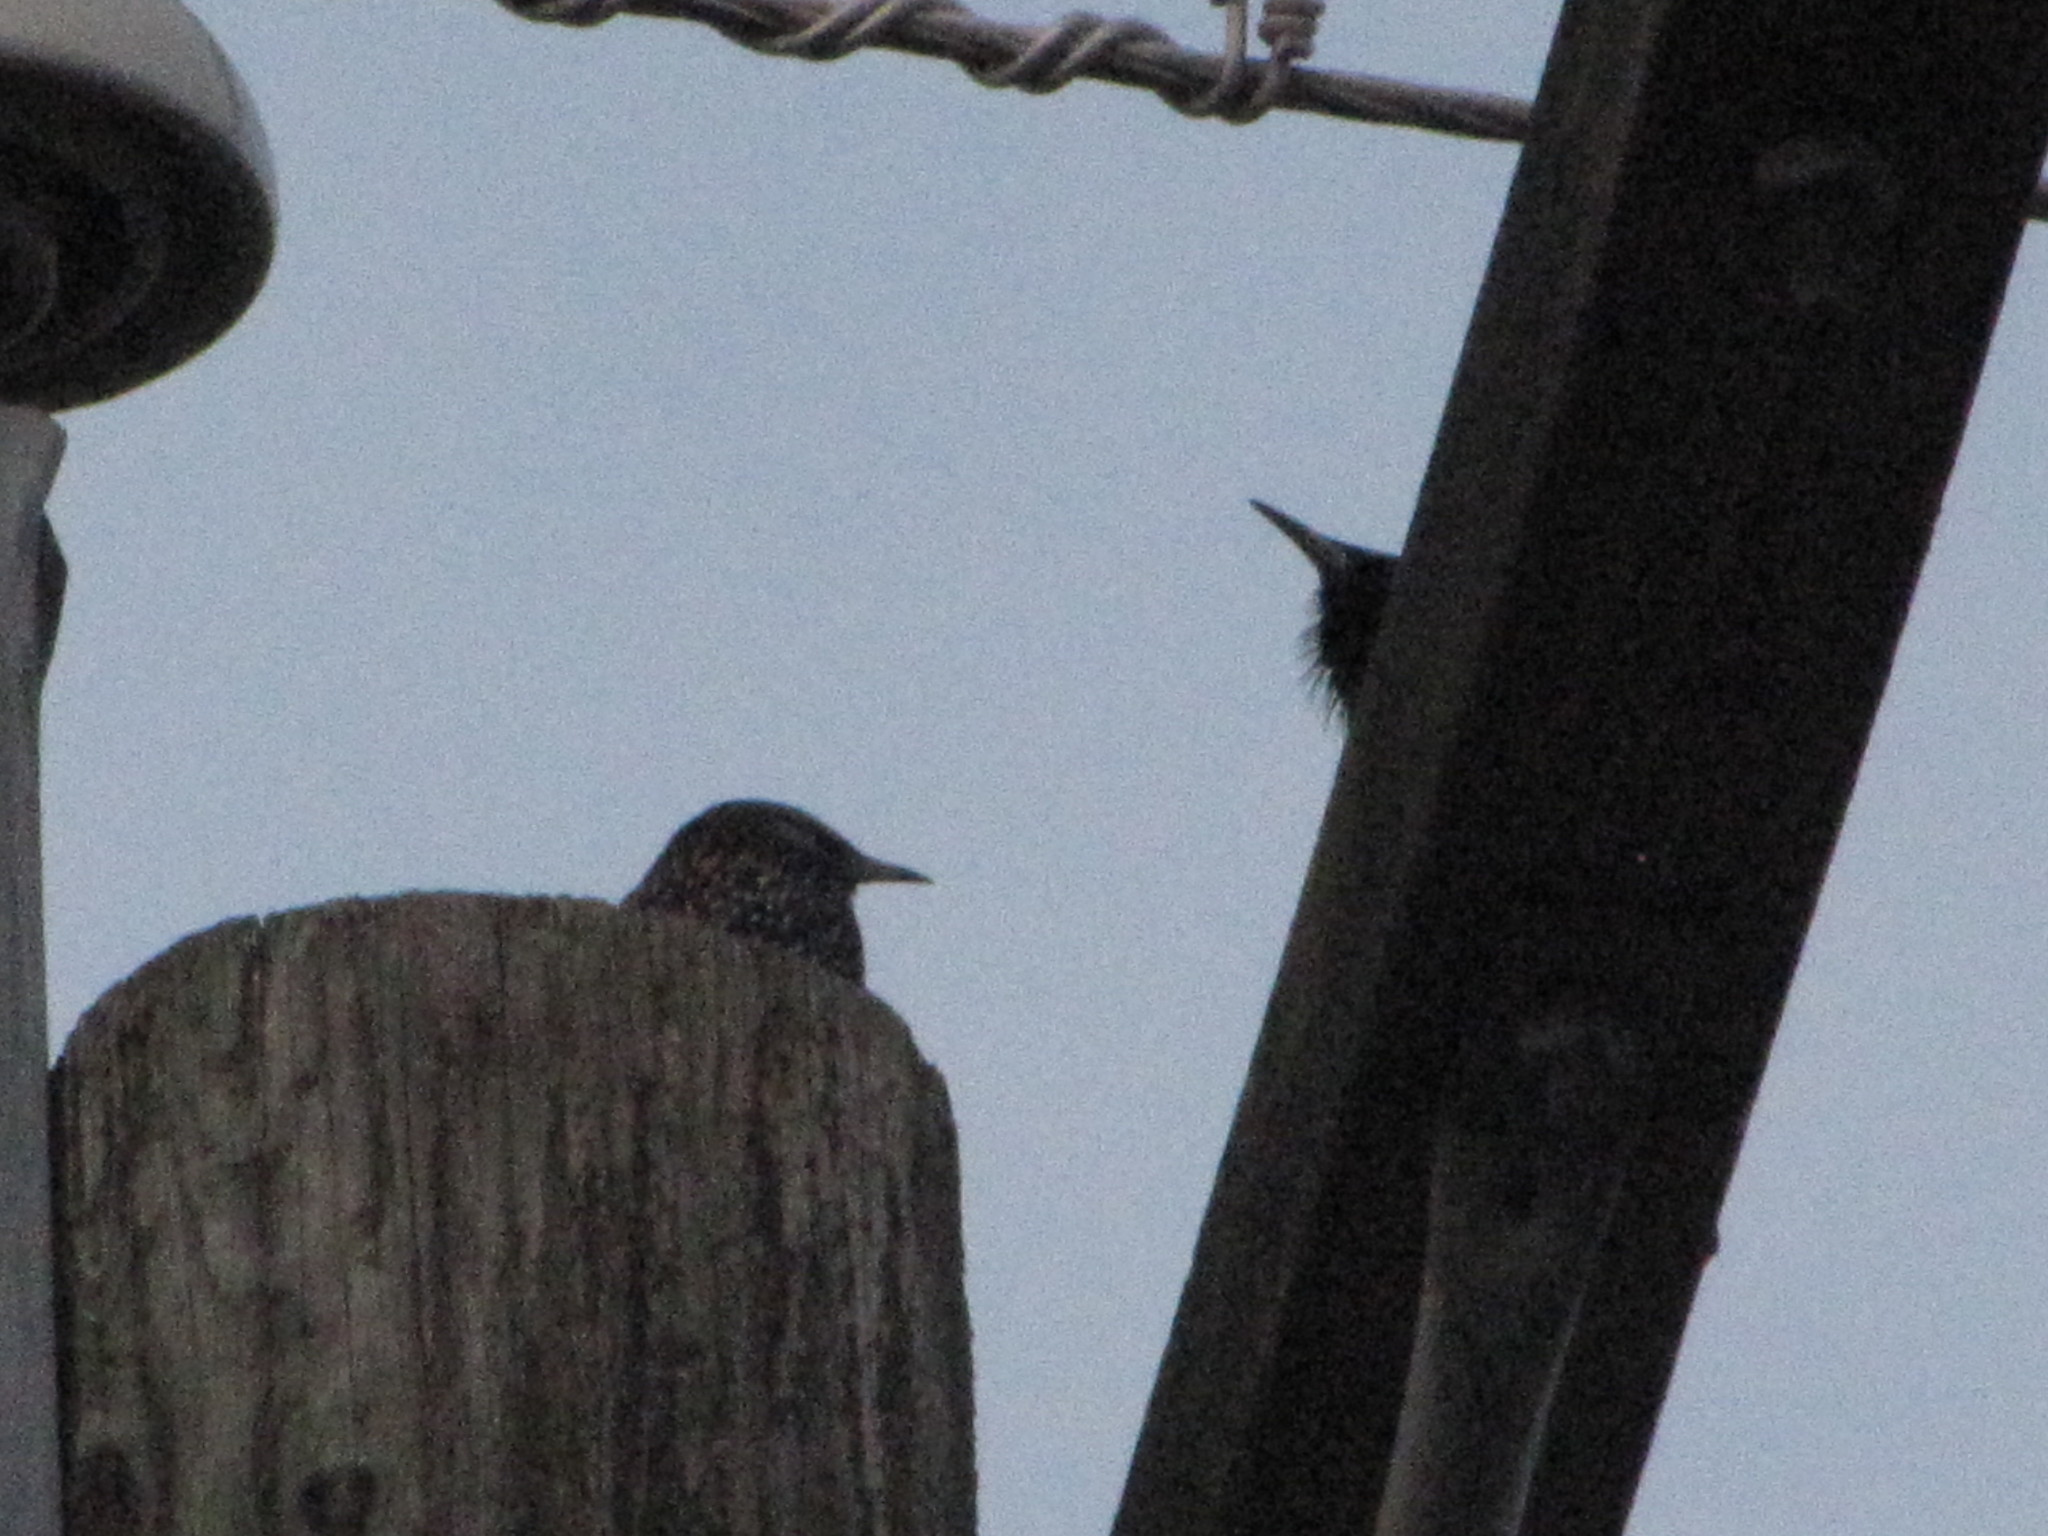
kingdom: Animalia
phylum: Chordata
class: Aves
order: Passeriformes
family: Sturnidae
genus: Sturnus
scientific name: Sturnus vulgaris
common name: Common starling
